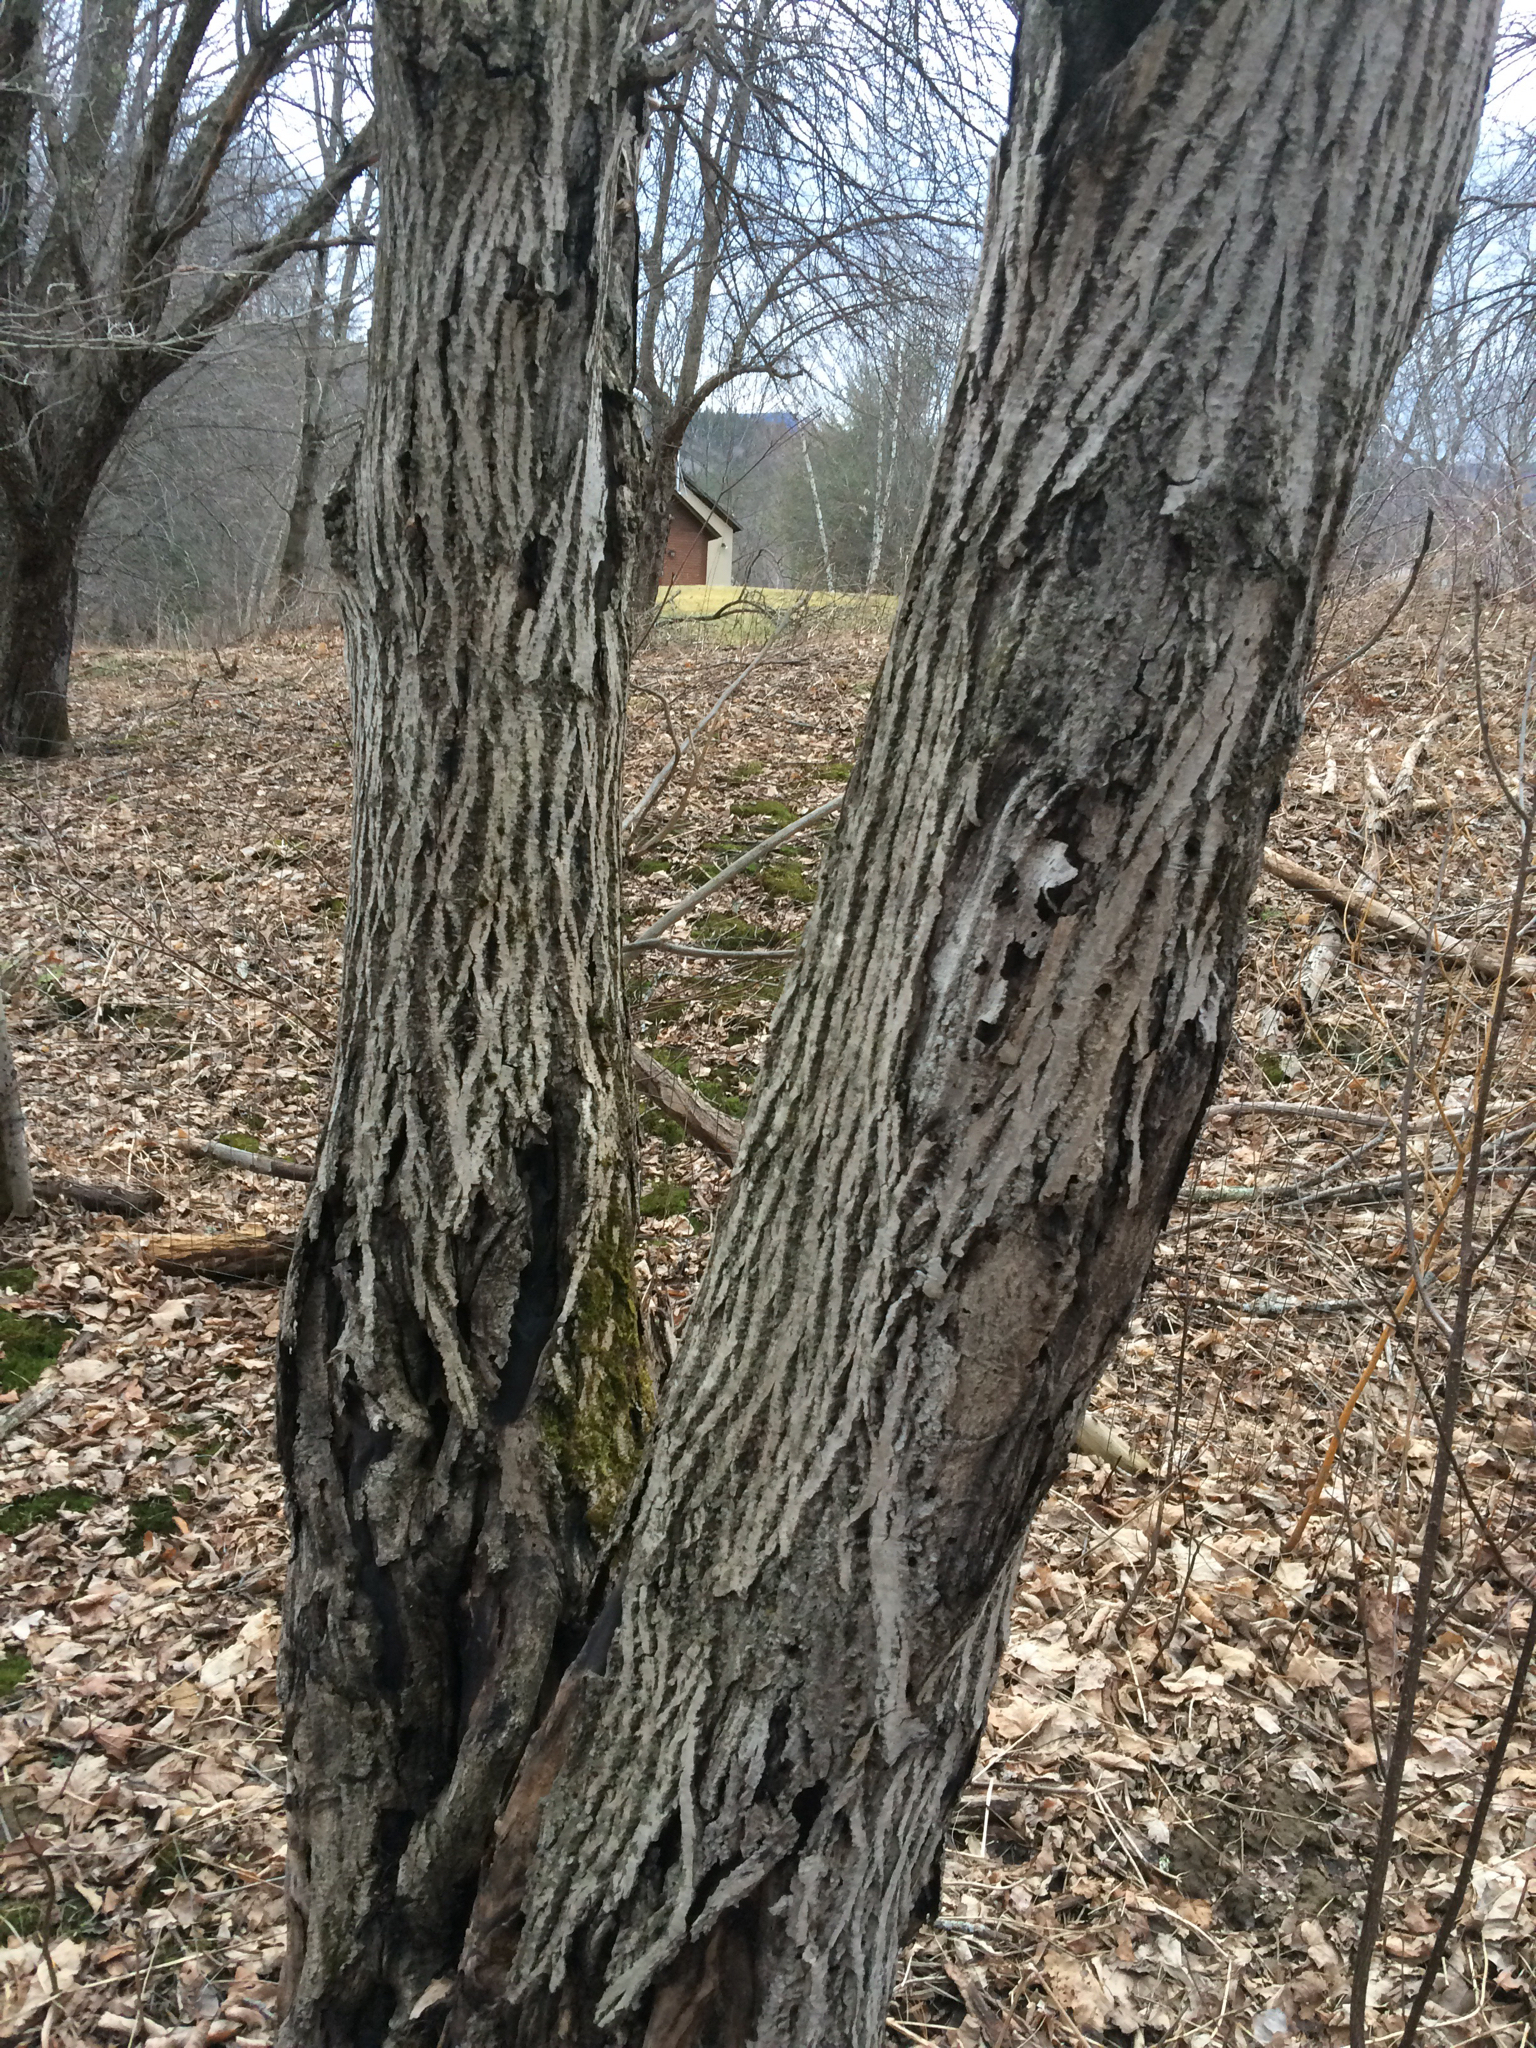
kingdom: Plantae
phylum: Tracheophyta
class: Magnoliopsida
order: Fagales
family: Juglandaceae
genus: Juglans
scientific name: Juglans cinerea
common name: Butternut
